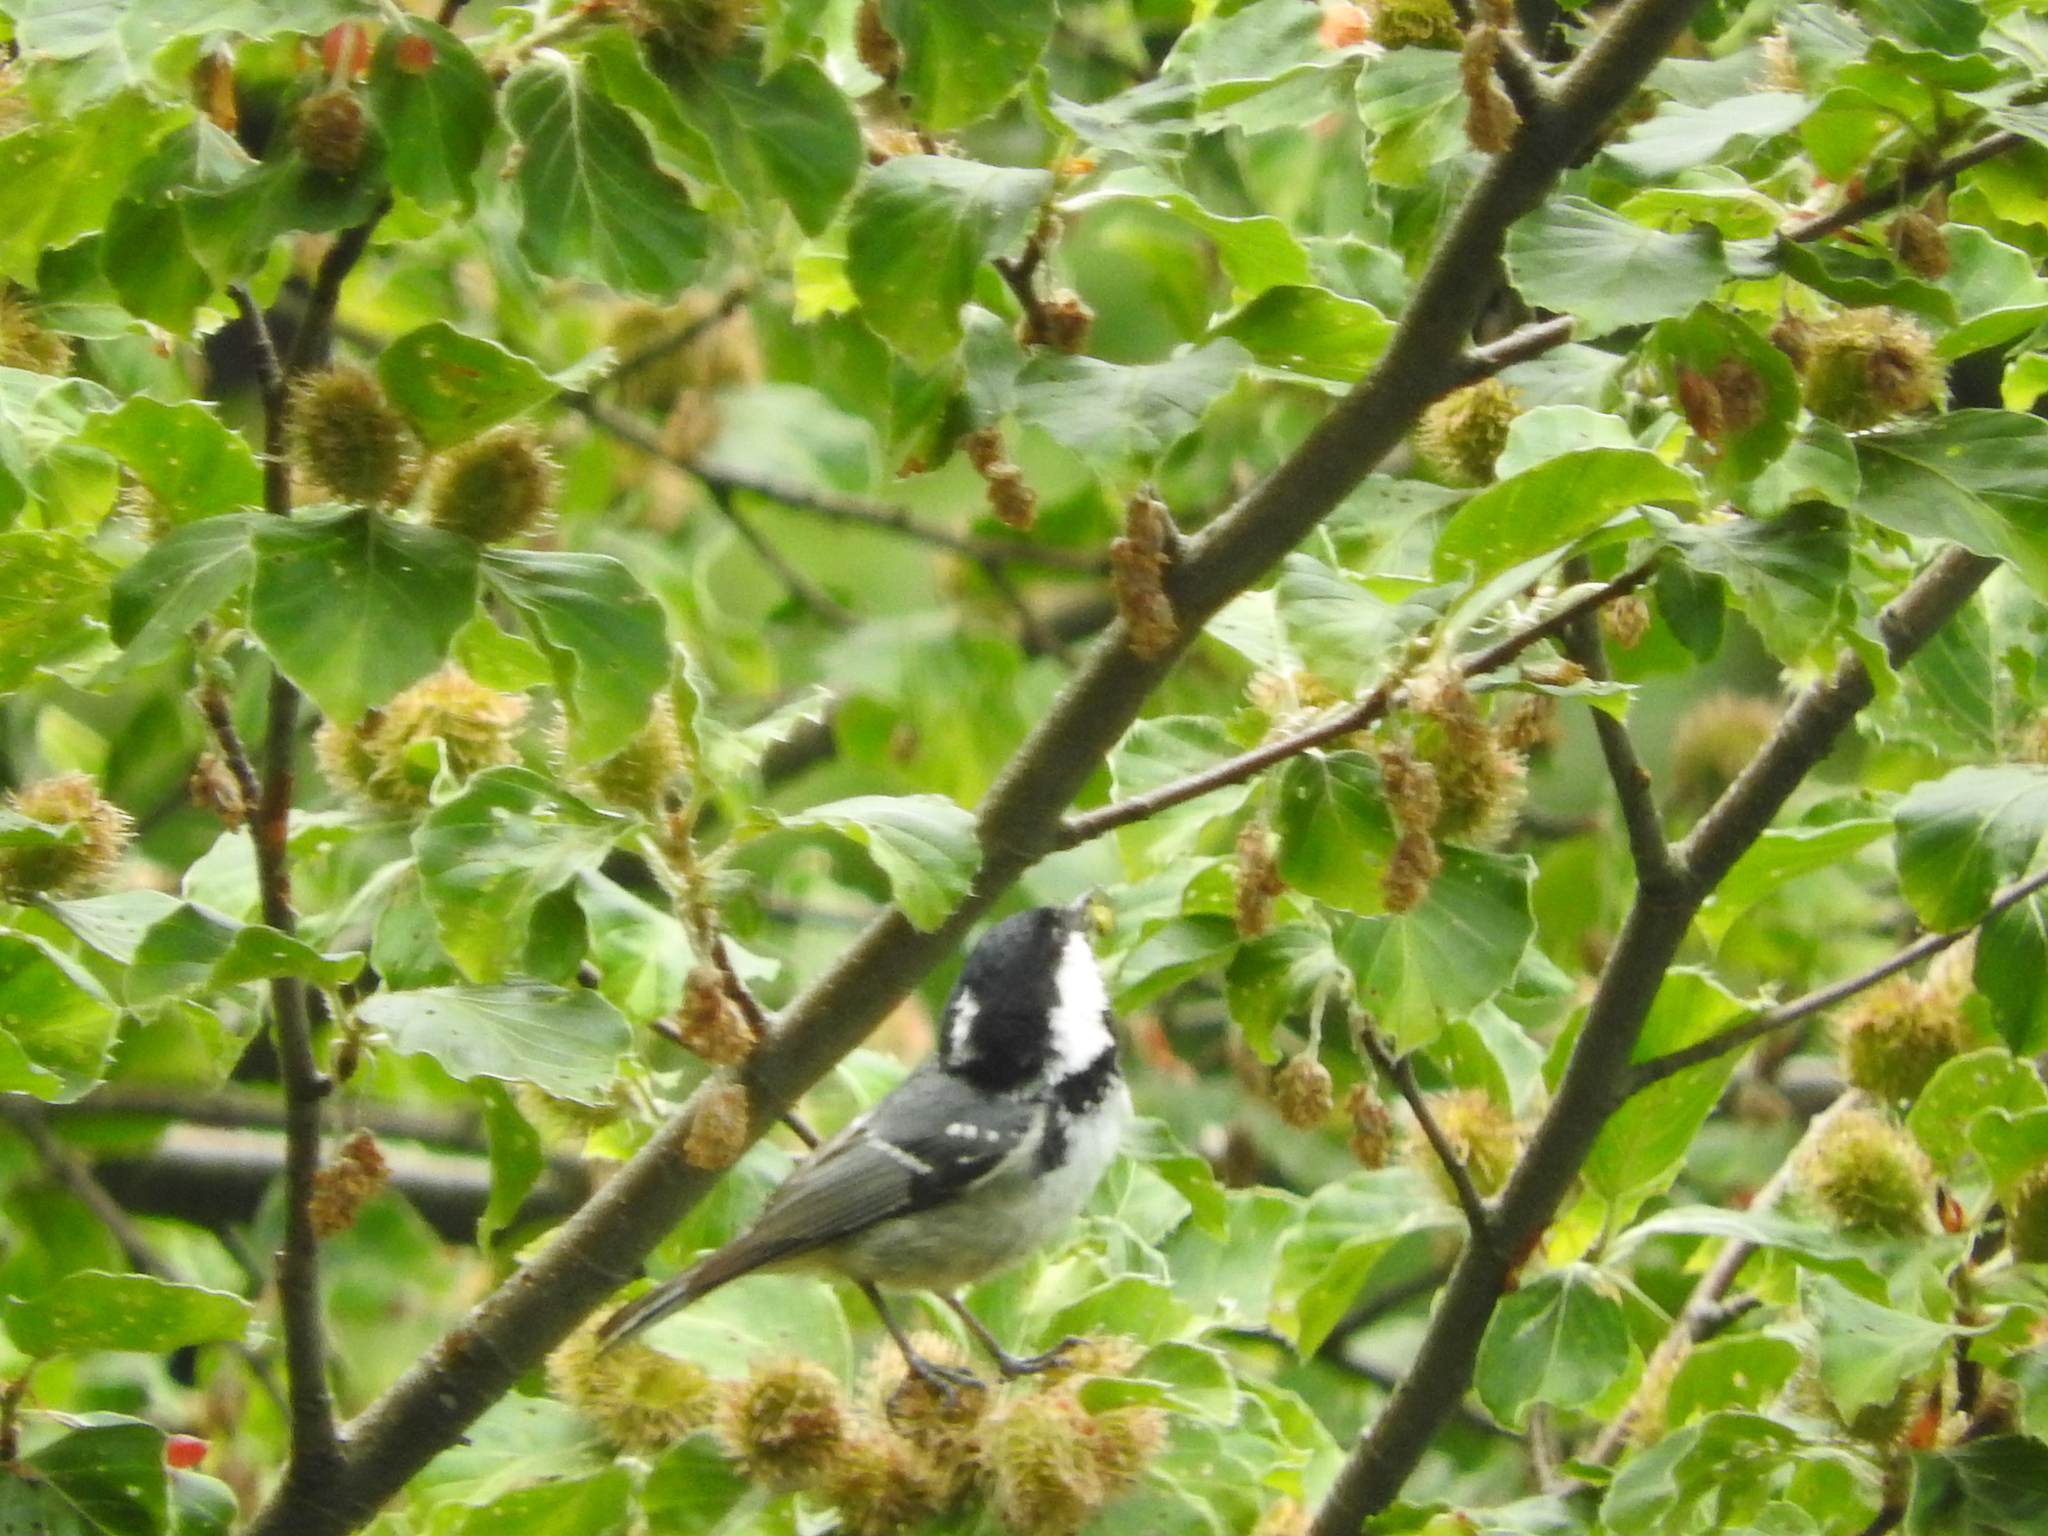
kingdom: Animalia
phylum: Chordata
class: Aves
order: Passeriformes
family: Paridae
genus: Periparus
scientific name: Periparus ater
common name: Coal tit
